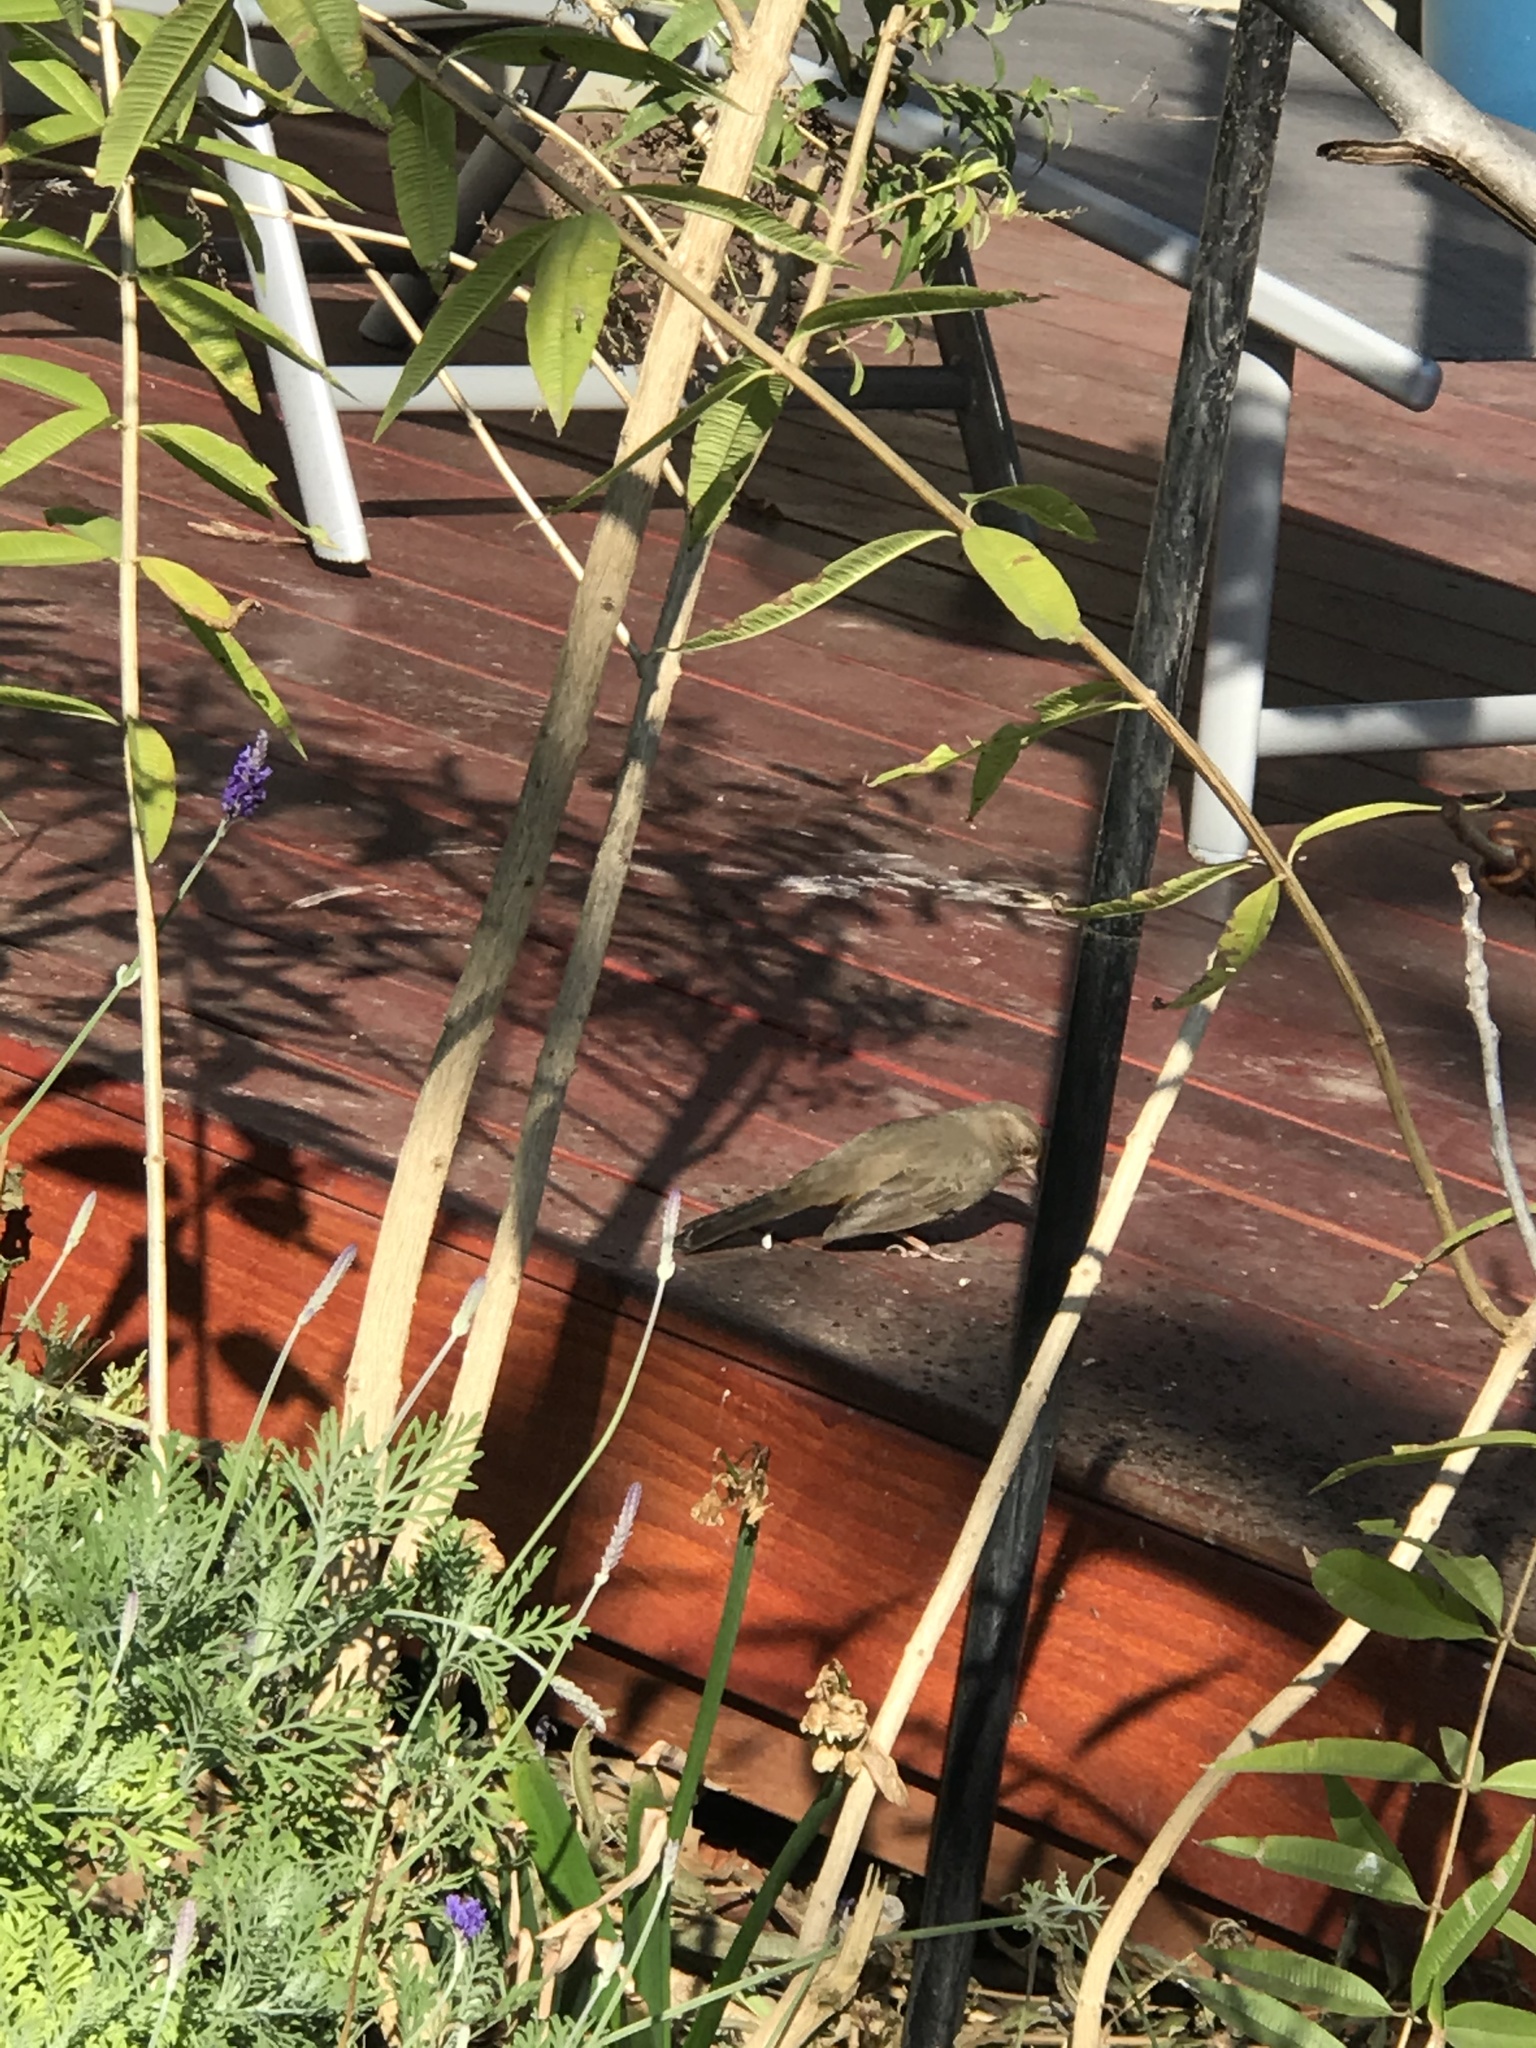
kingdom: Animalia
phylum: Chordata
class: Aves
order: Passeriformes
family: Passerellidae
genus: Melozone
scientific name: Melozone crissalis
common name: California towhee
